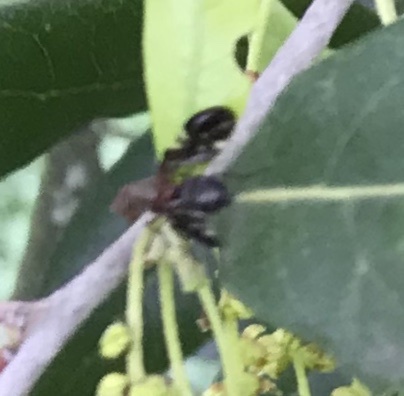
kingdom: Animalia
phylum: Arthropoda
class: Insecta
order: Diptera
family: Ulidiidae
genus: Delphinia
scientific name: Delphinia picta
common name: Common picture-winged fly
